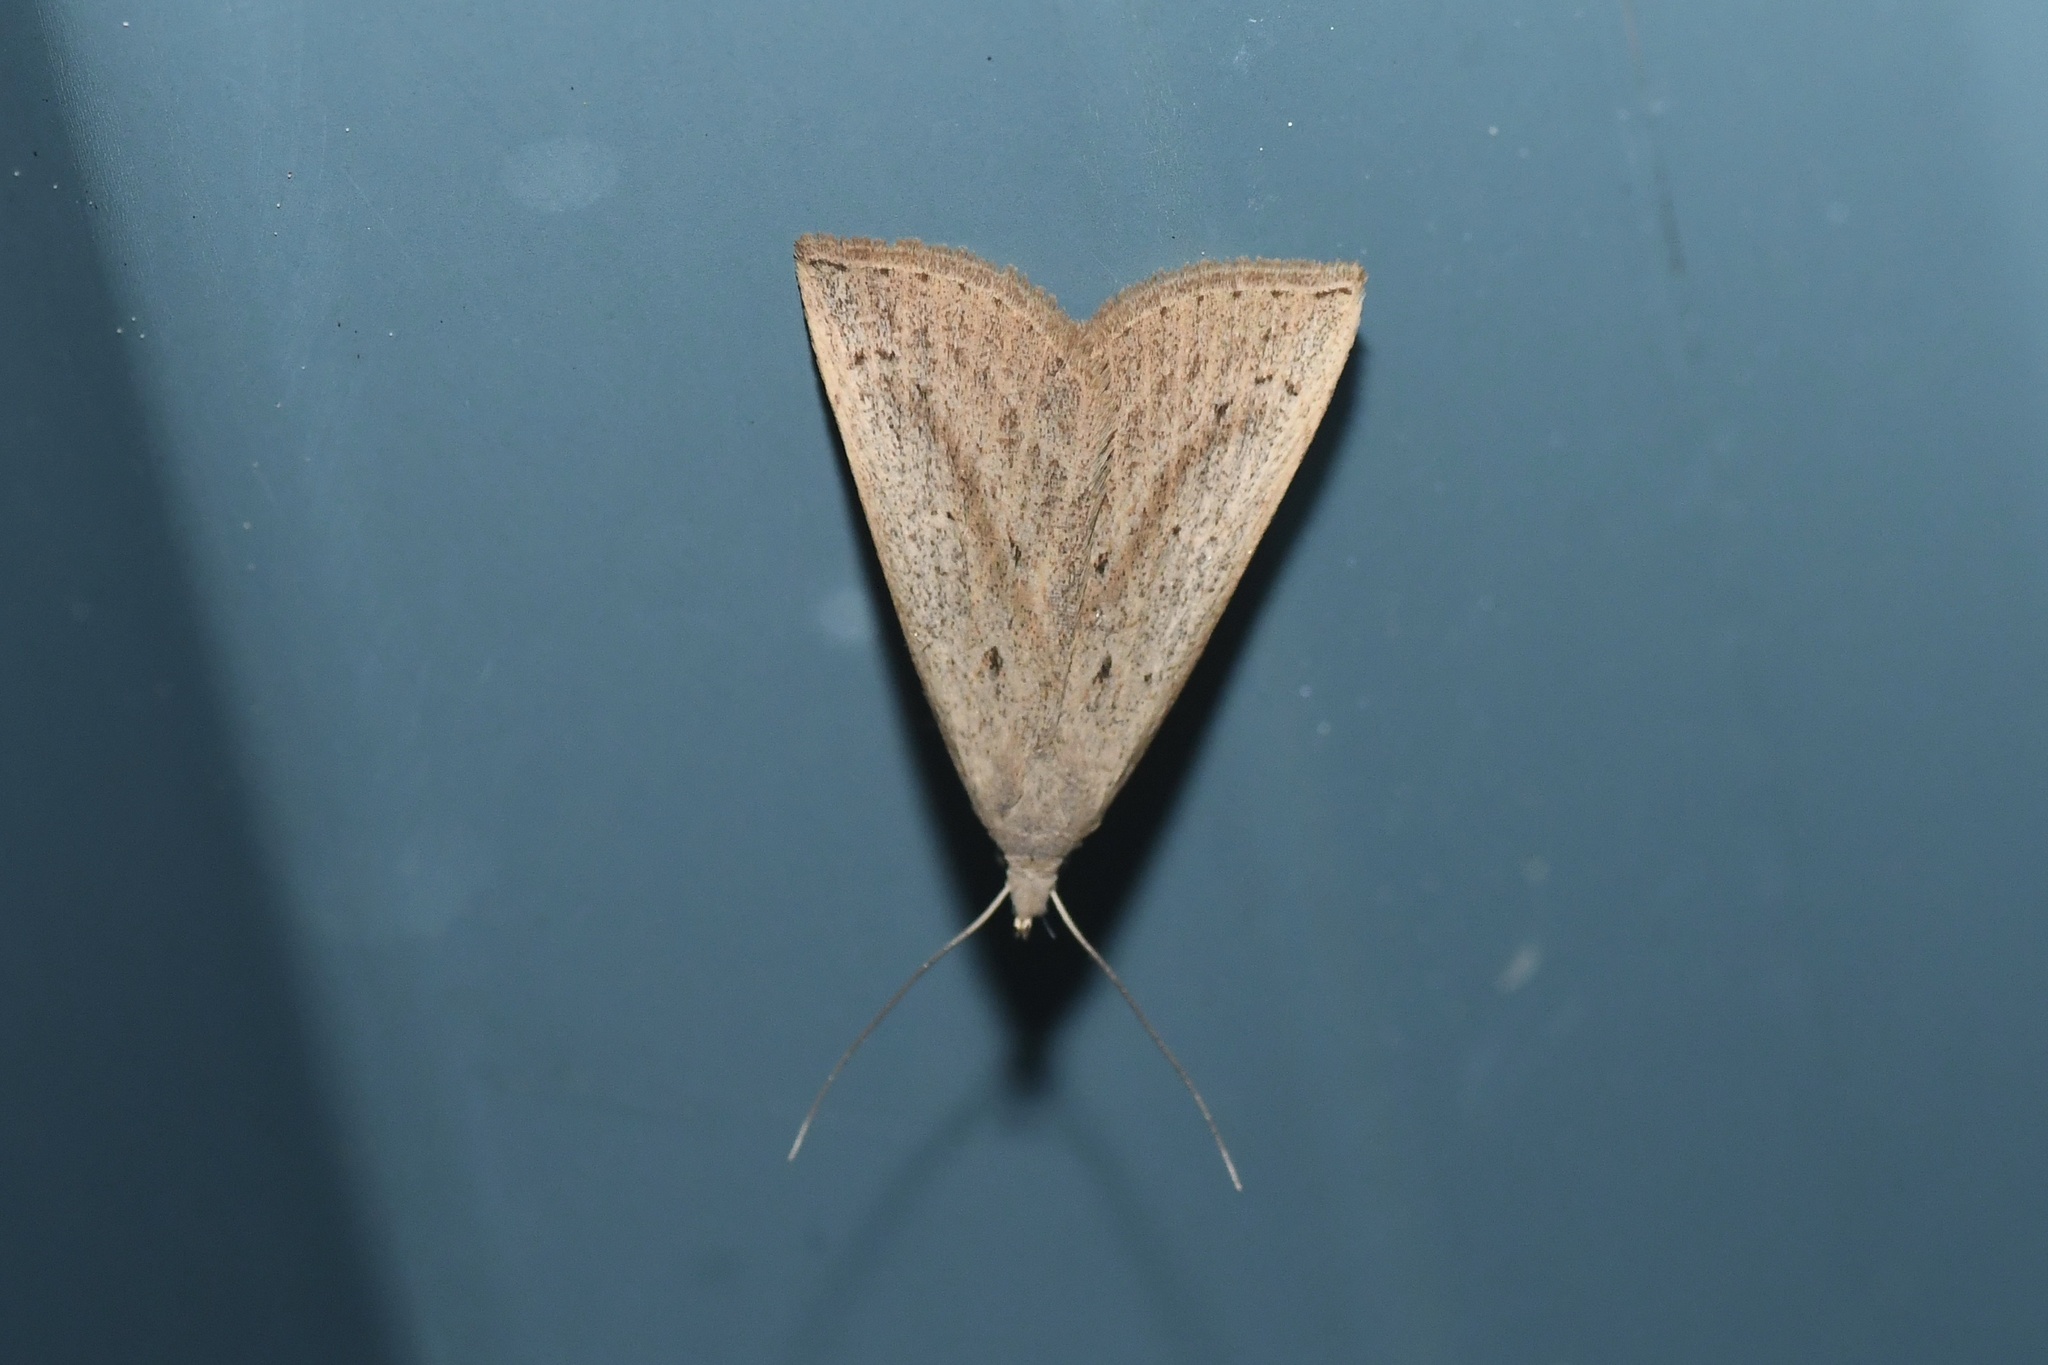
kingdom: Animalia
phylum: Arthropoda
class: Insecta
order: Lepidoptera
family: Erebidae
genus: Macrochilo
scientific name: Macrochilo louisiana
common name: Louisiana macrochilo
